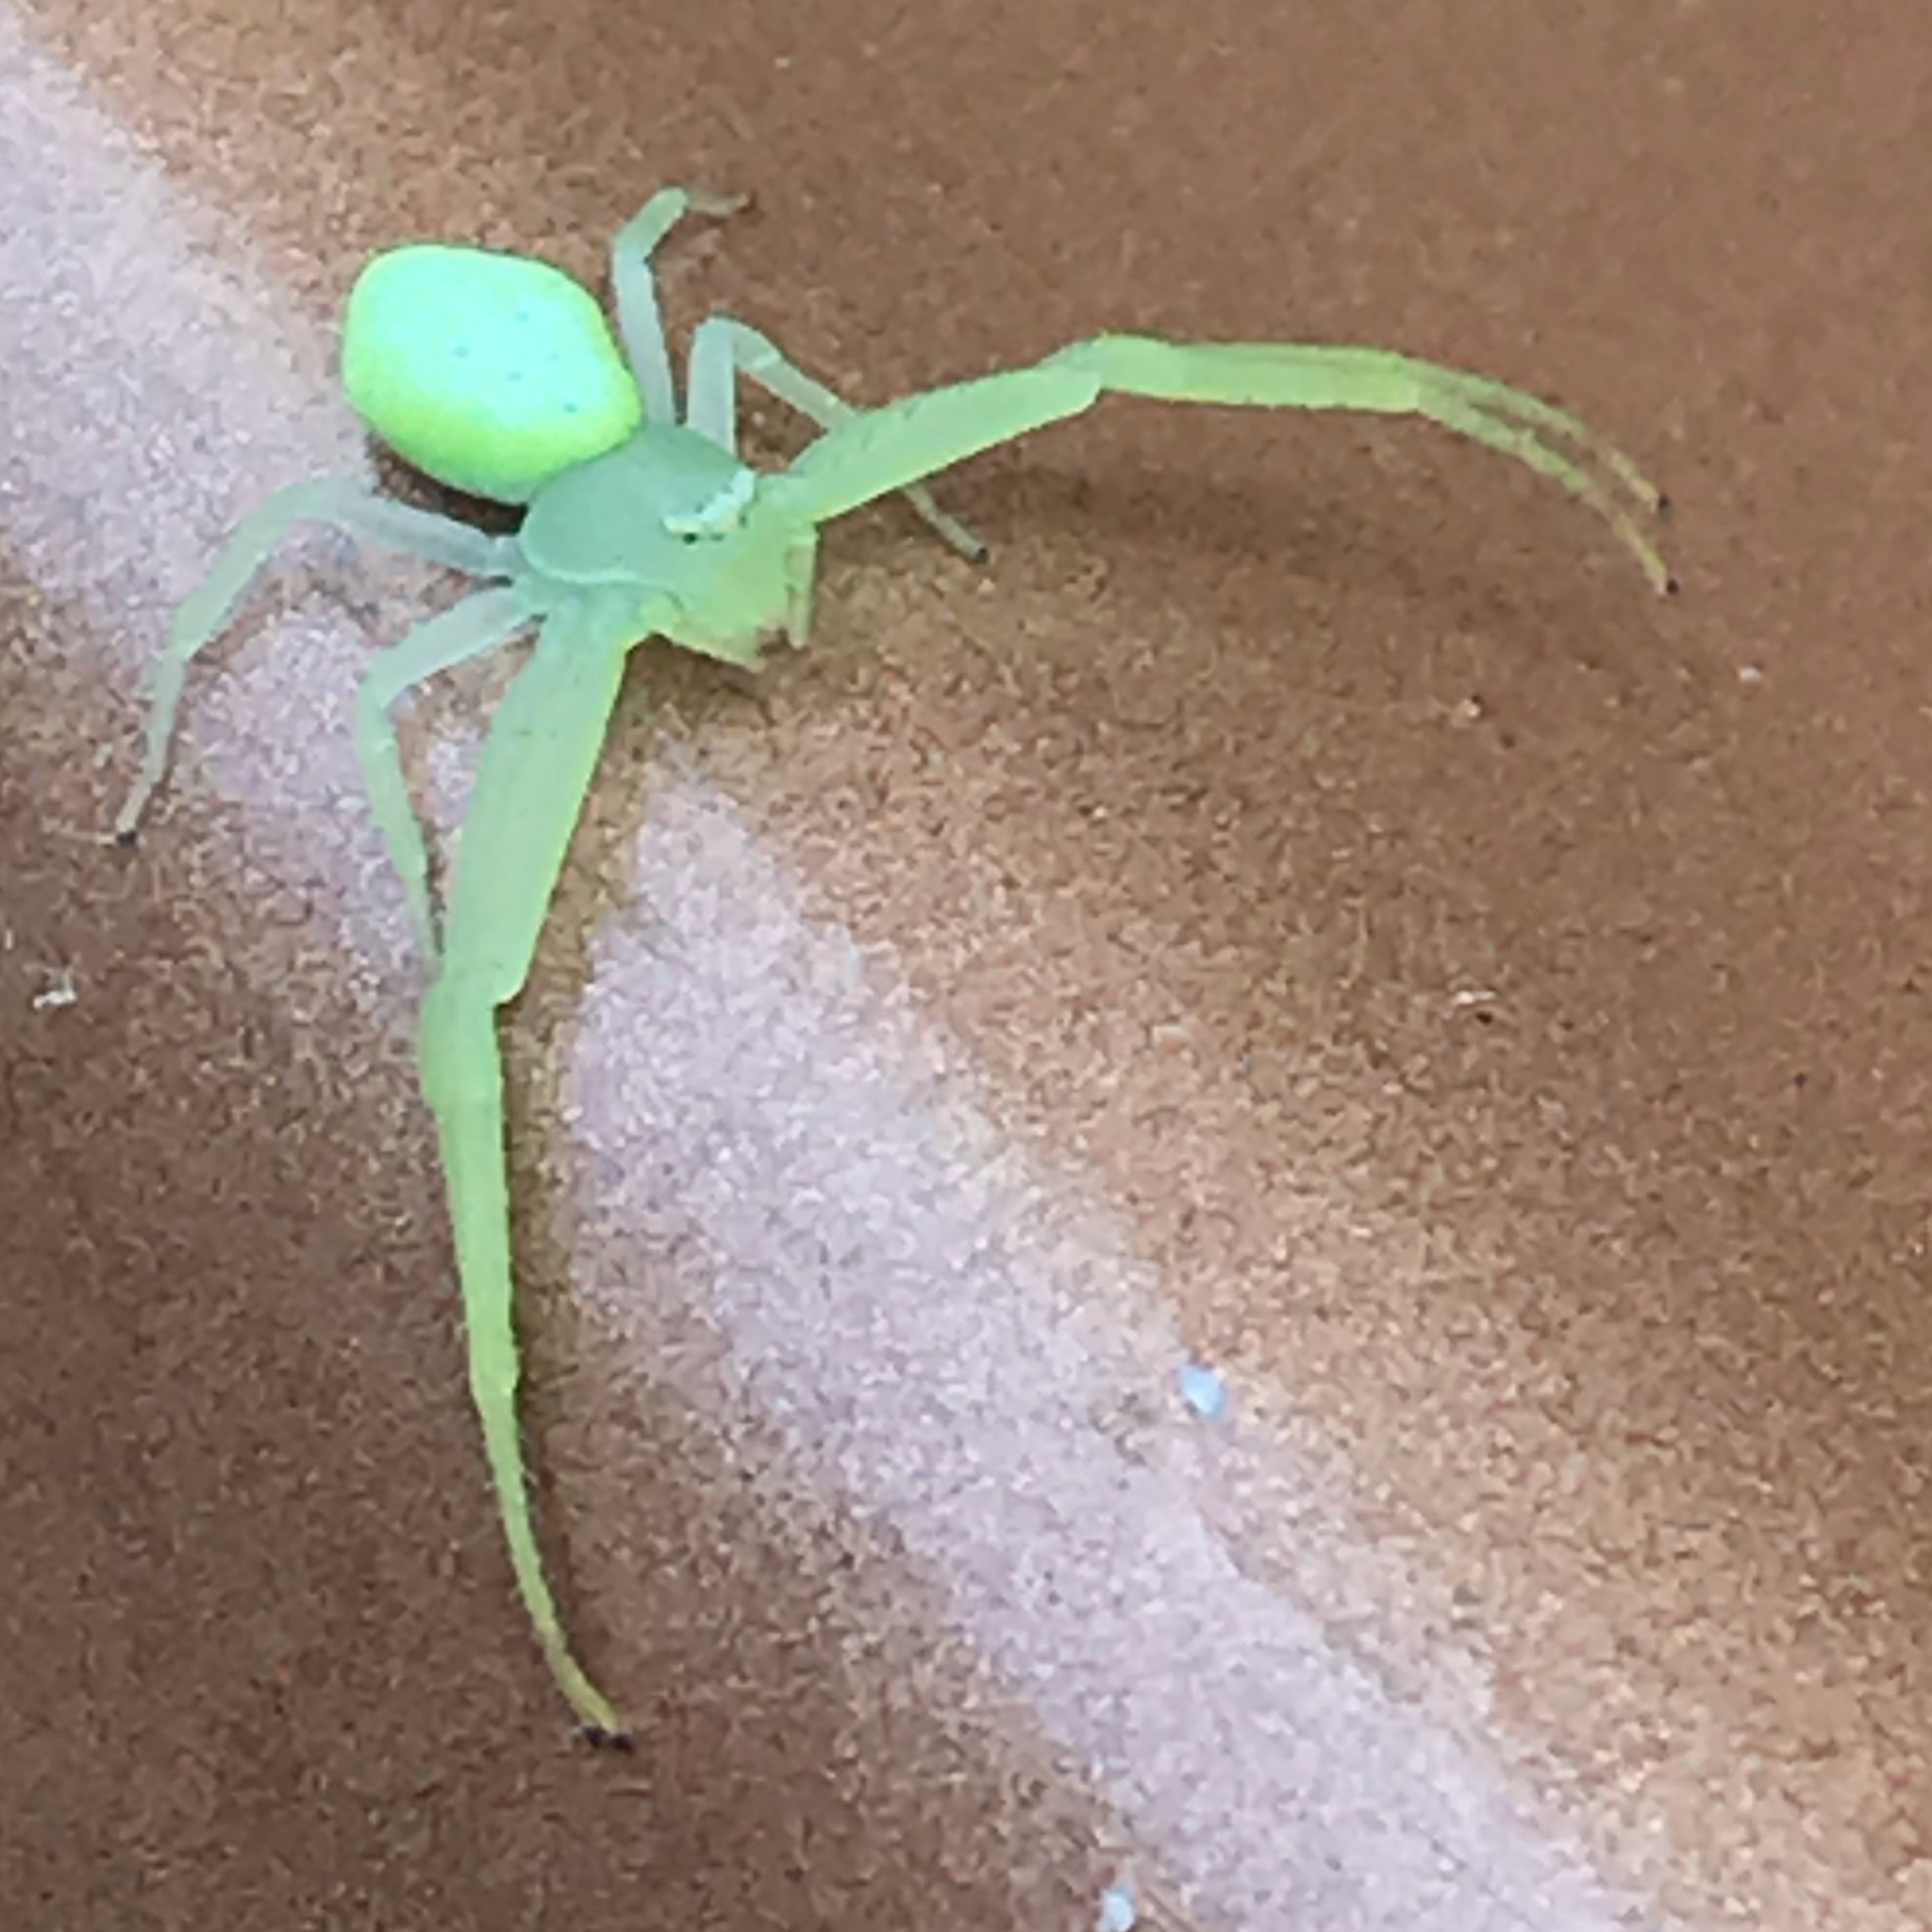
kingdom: Animalia
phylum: Arthropoda
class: Arachnida
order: Araneae
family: Thomisidae
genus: Misumessus
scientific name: Misumessus oblongus
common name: American green crab spider
